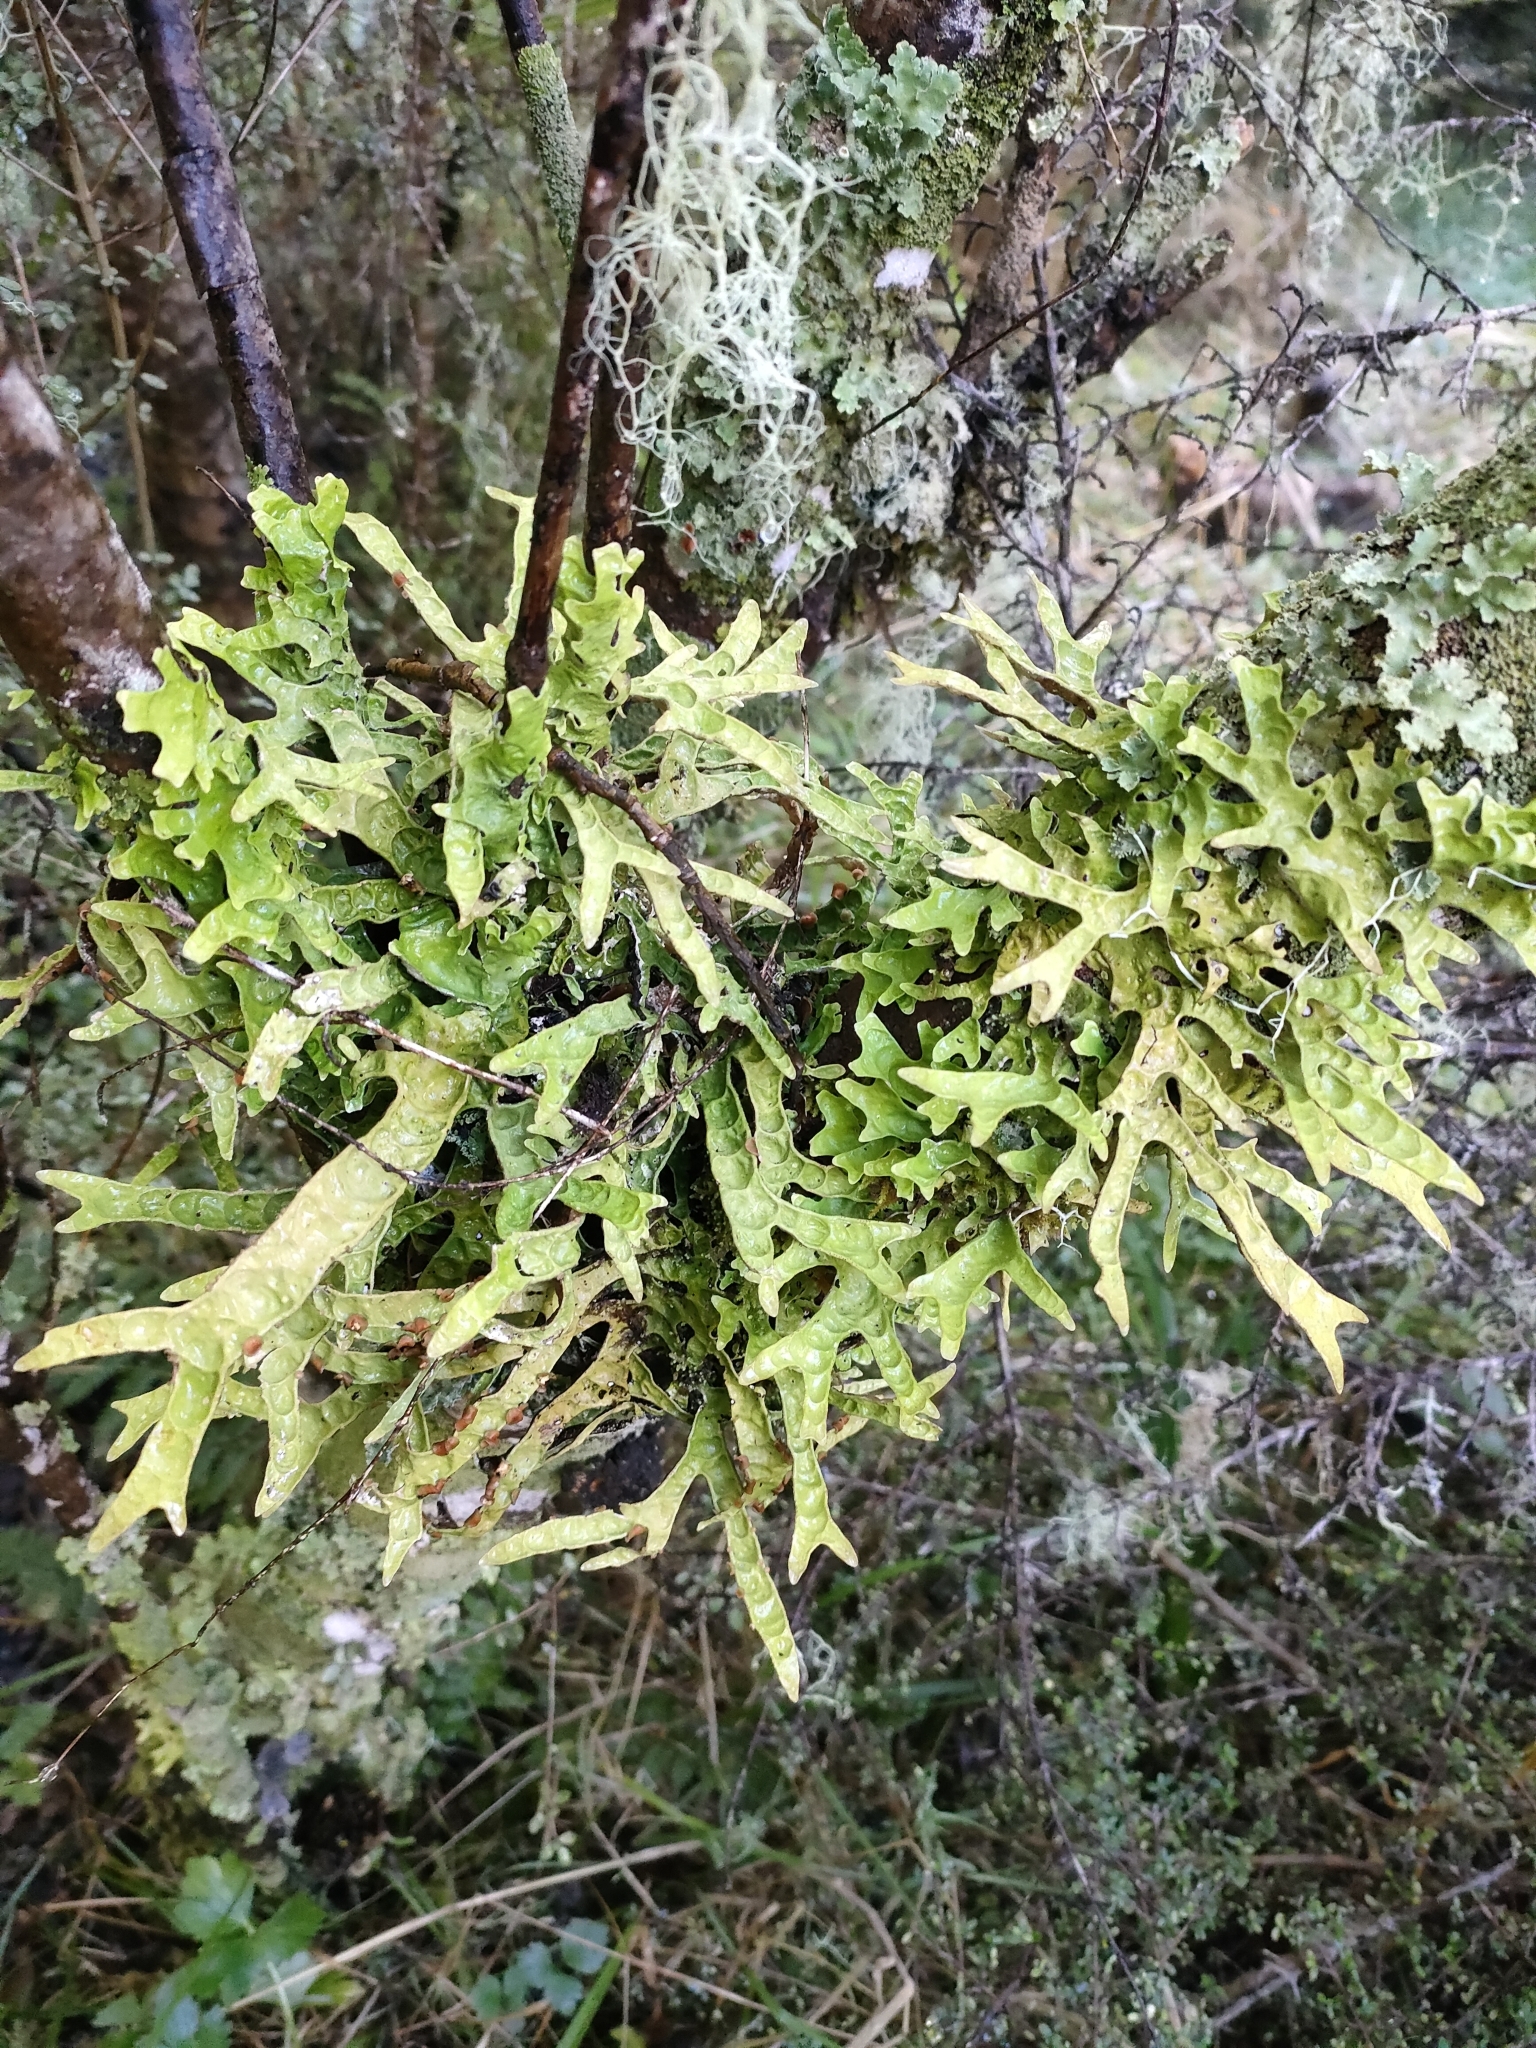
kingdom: Fungi
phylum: Ascomycota
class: Lecanoromycetes
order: Peltigerales
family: Lobariaceae
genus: Pseudocyphellaria
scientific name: Pseudocyphellaria rufovirescens
